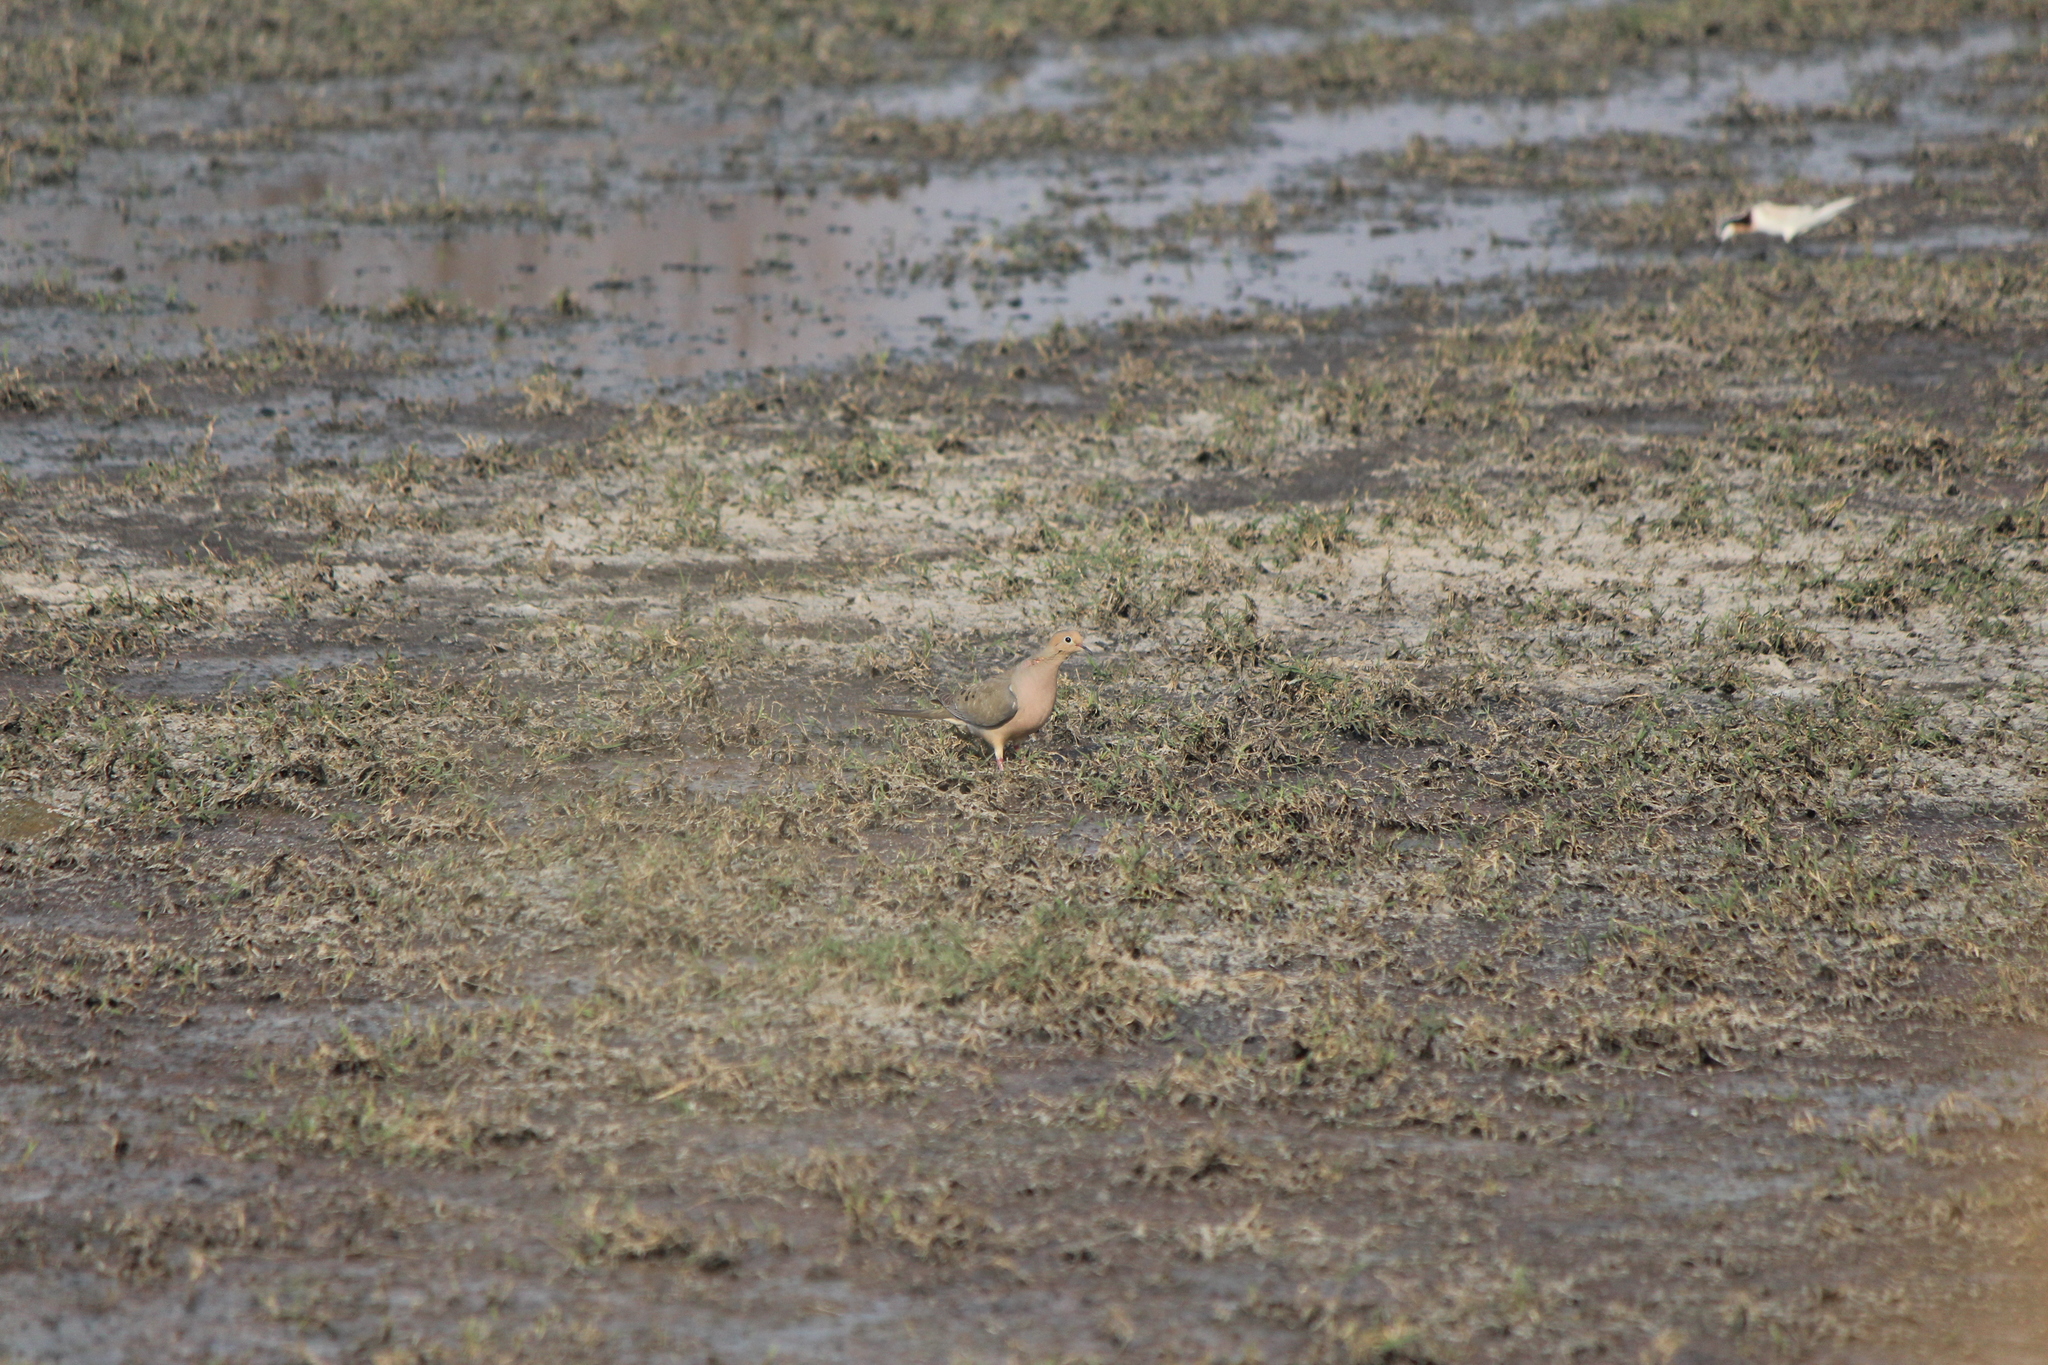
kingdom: Animalia
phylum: Chordata
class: Aves
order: Columbiformes
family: Columbidae
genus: Zenaida
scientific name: Zenaida macroura
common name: Mourning dove
